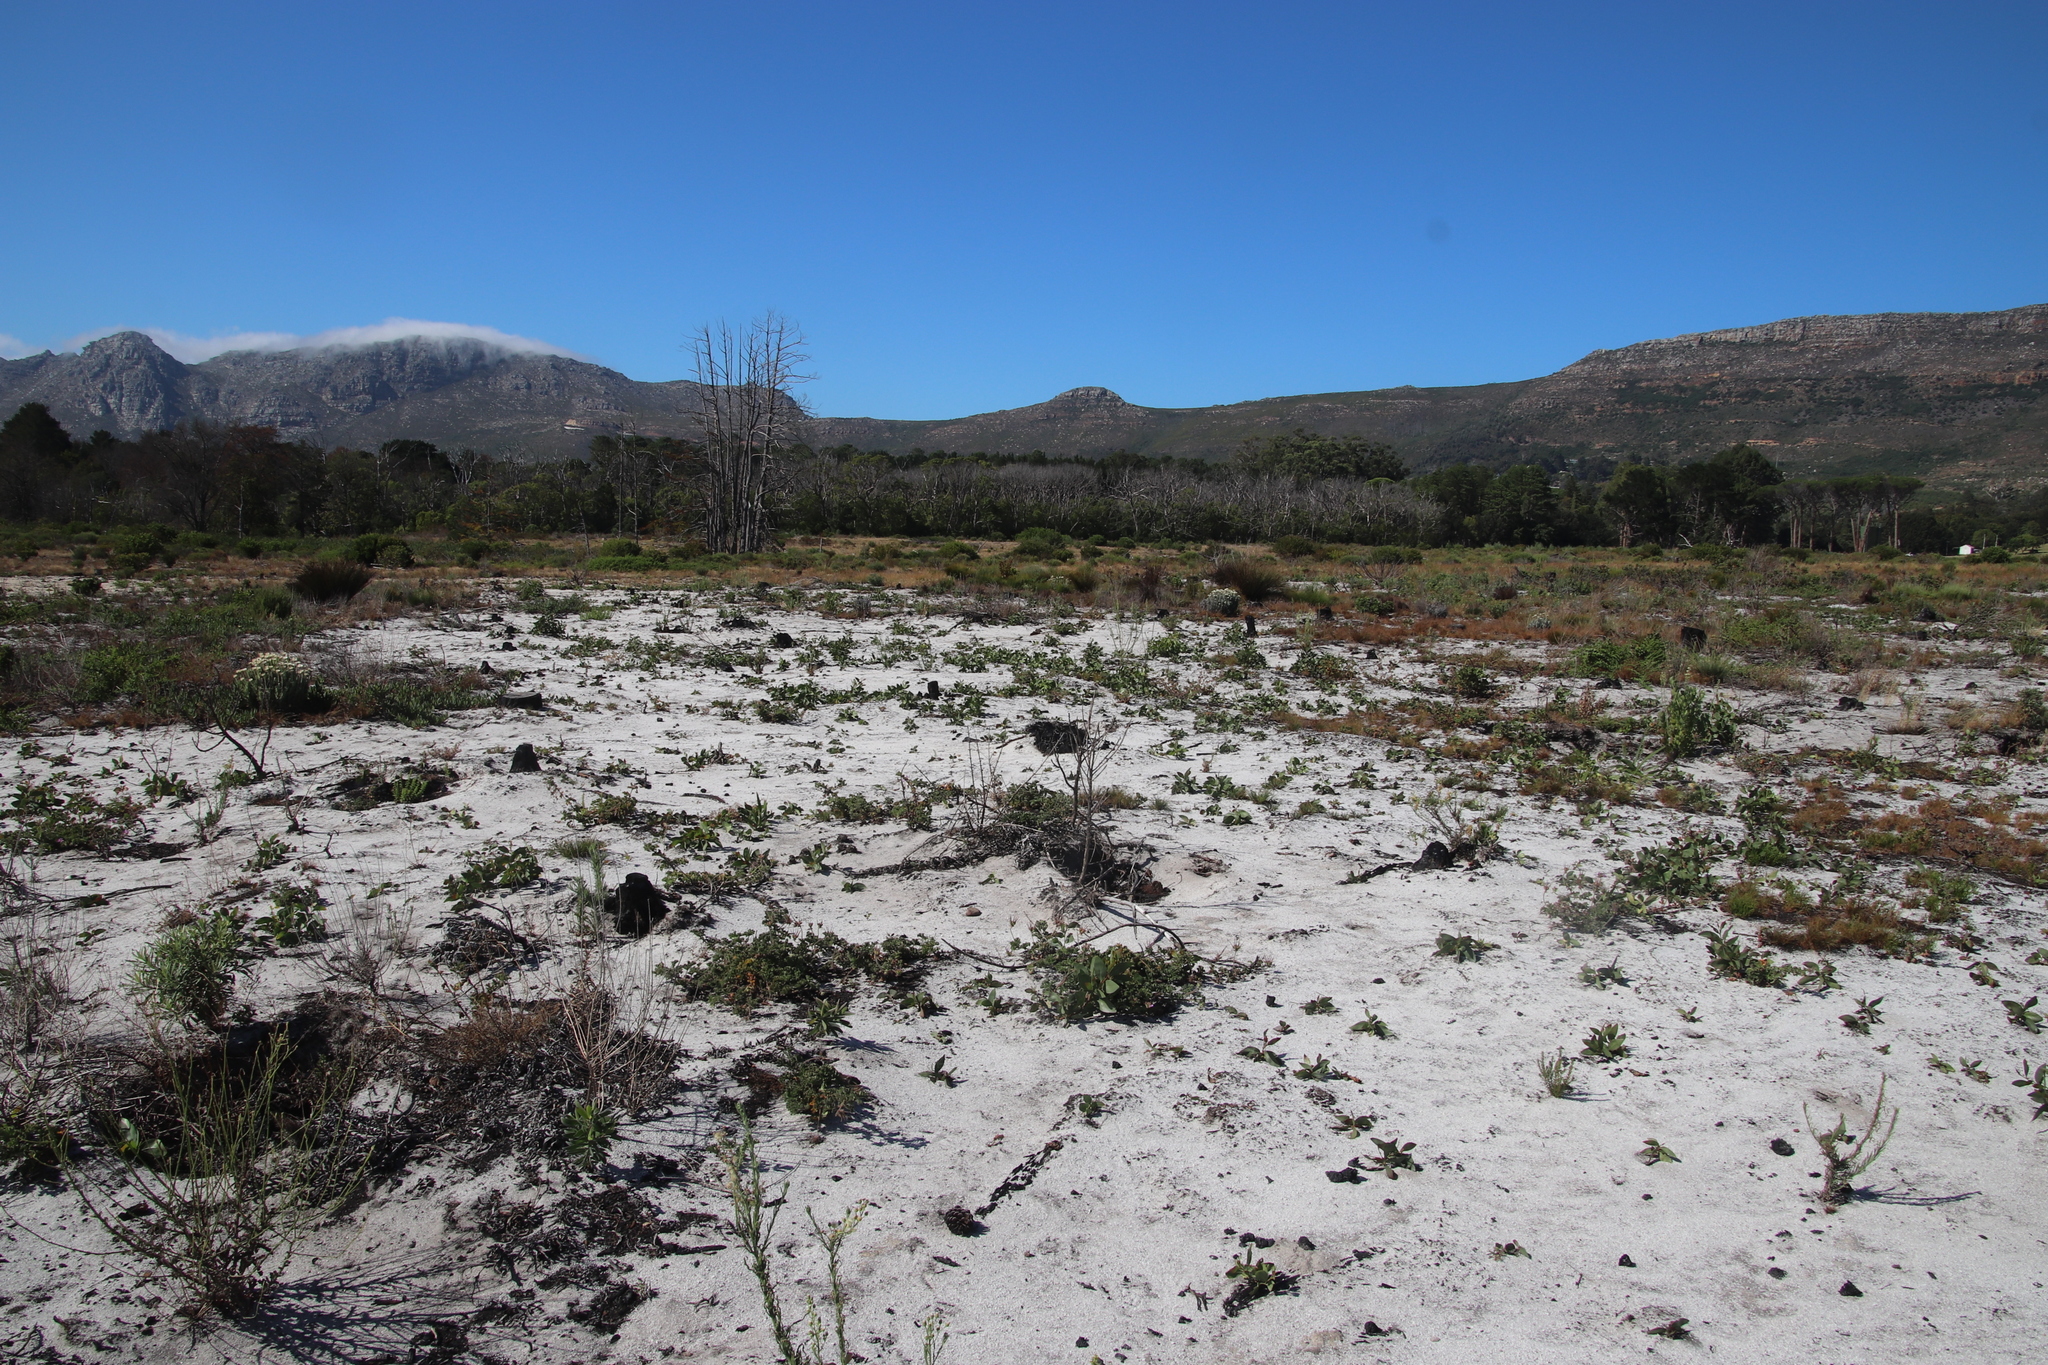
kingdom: Plantae
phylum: Tracheophyta
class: Magnoliopsida
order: Fabales
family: Fabaceae
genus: Acacia
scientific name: Acacia pycnantha
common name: Golden wattle
